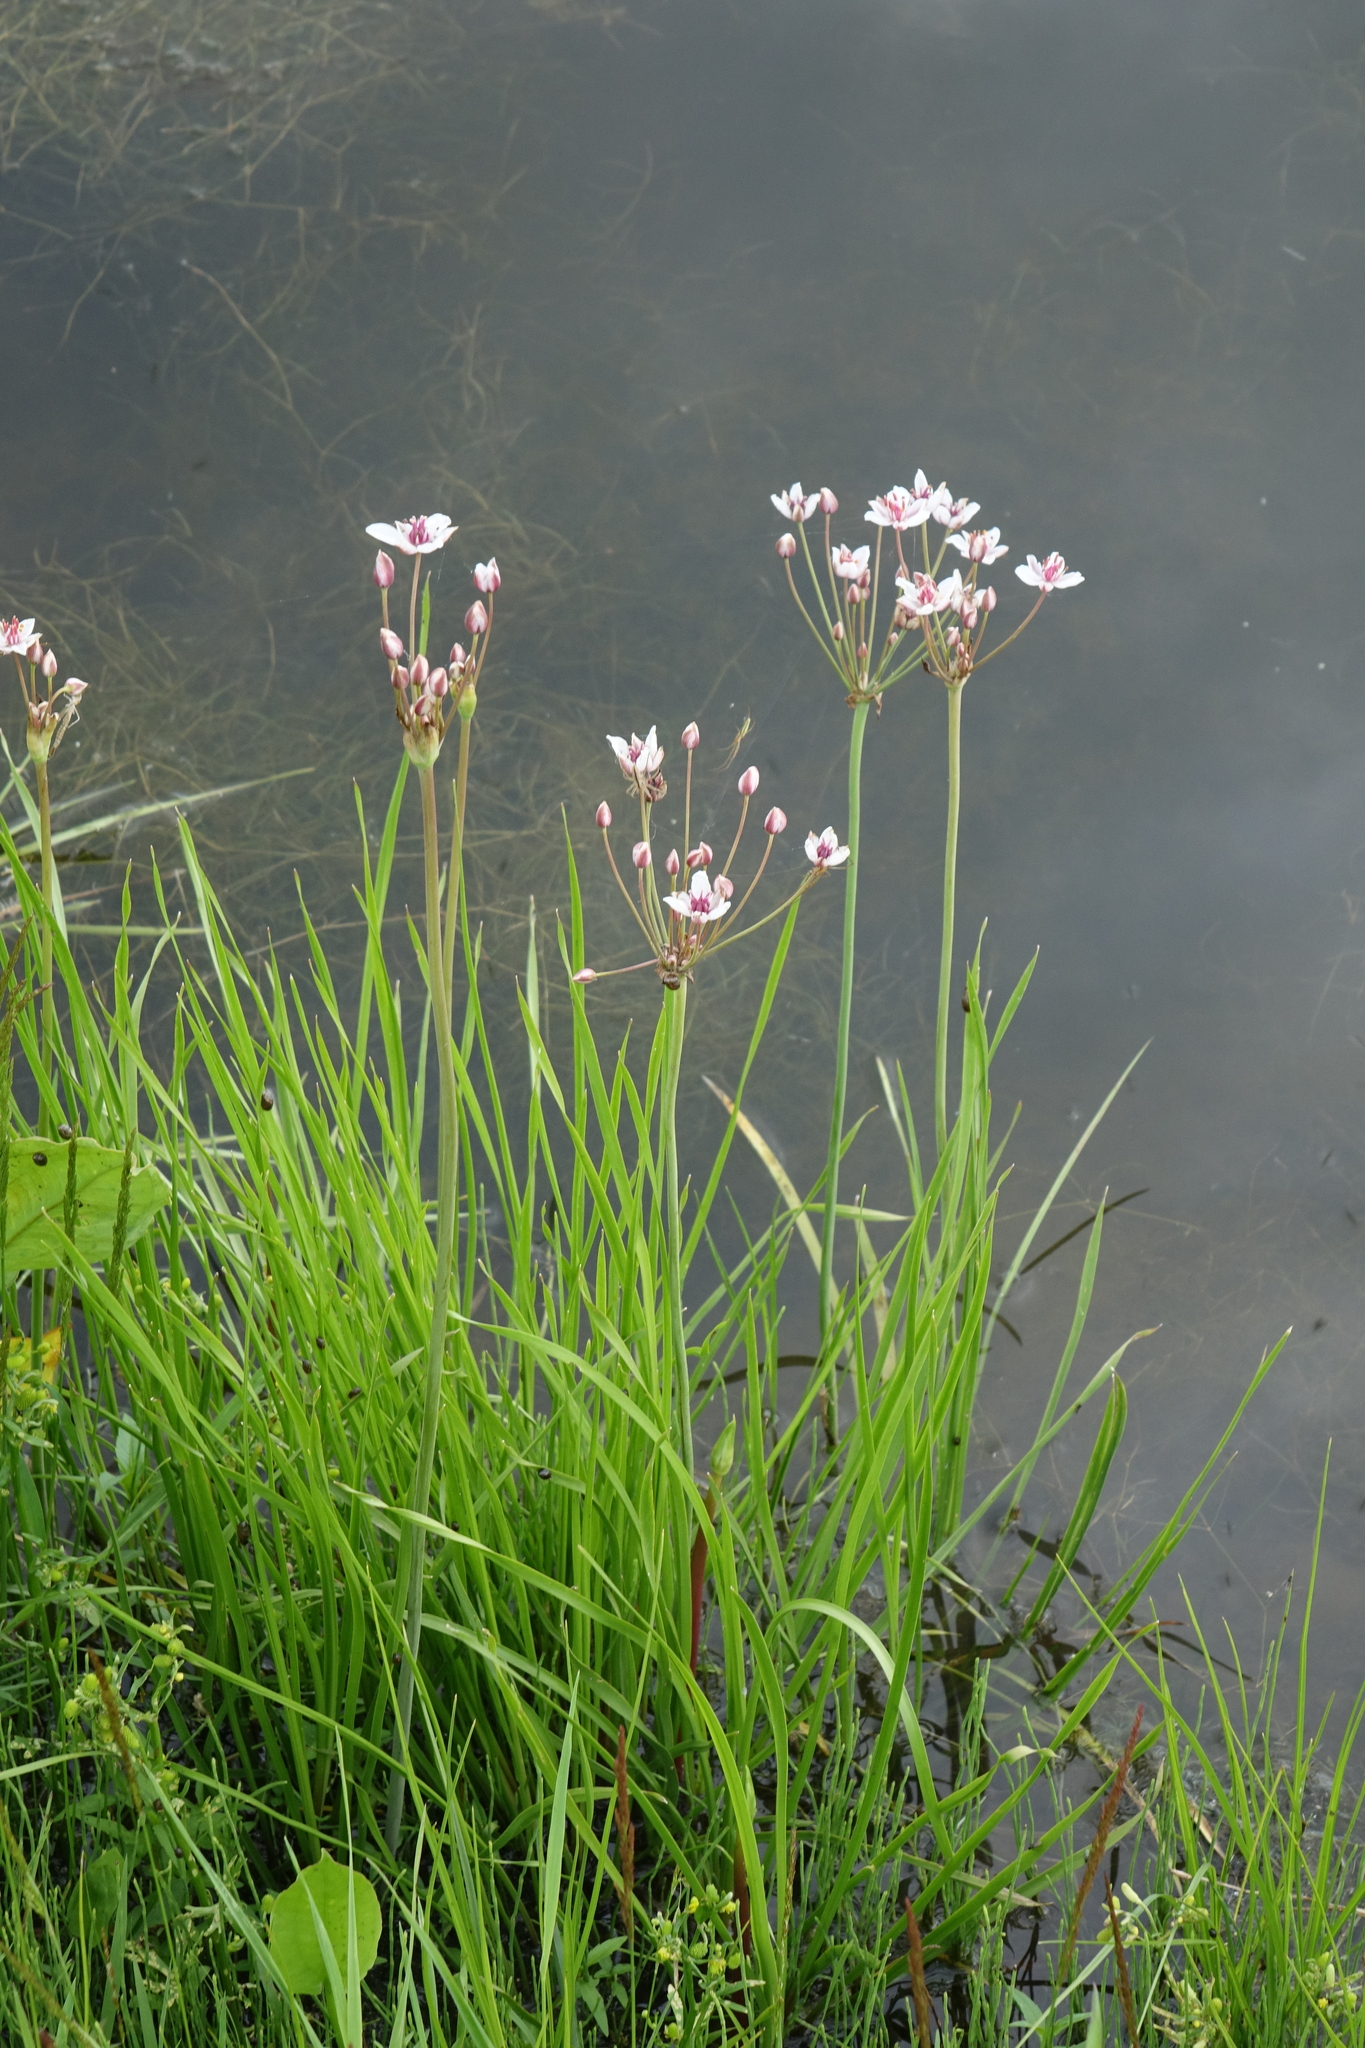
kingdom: Plantae
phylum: Tracheophyta
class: Liliopsida
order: Alismatales
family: Butomaceae
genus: Butomus
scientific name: Butomus umbellatus
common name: Flowering-rush
